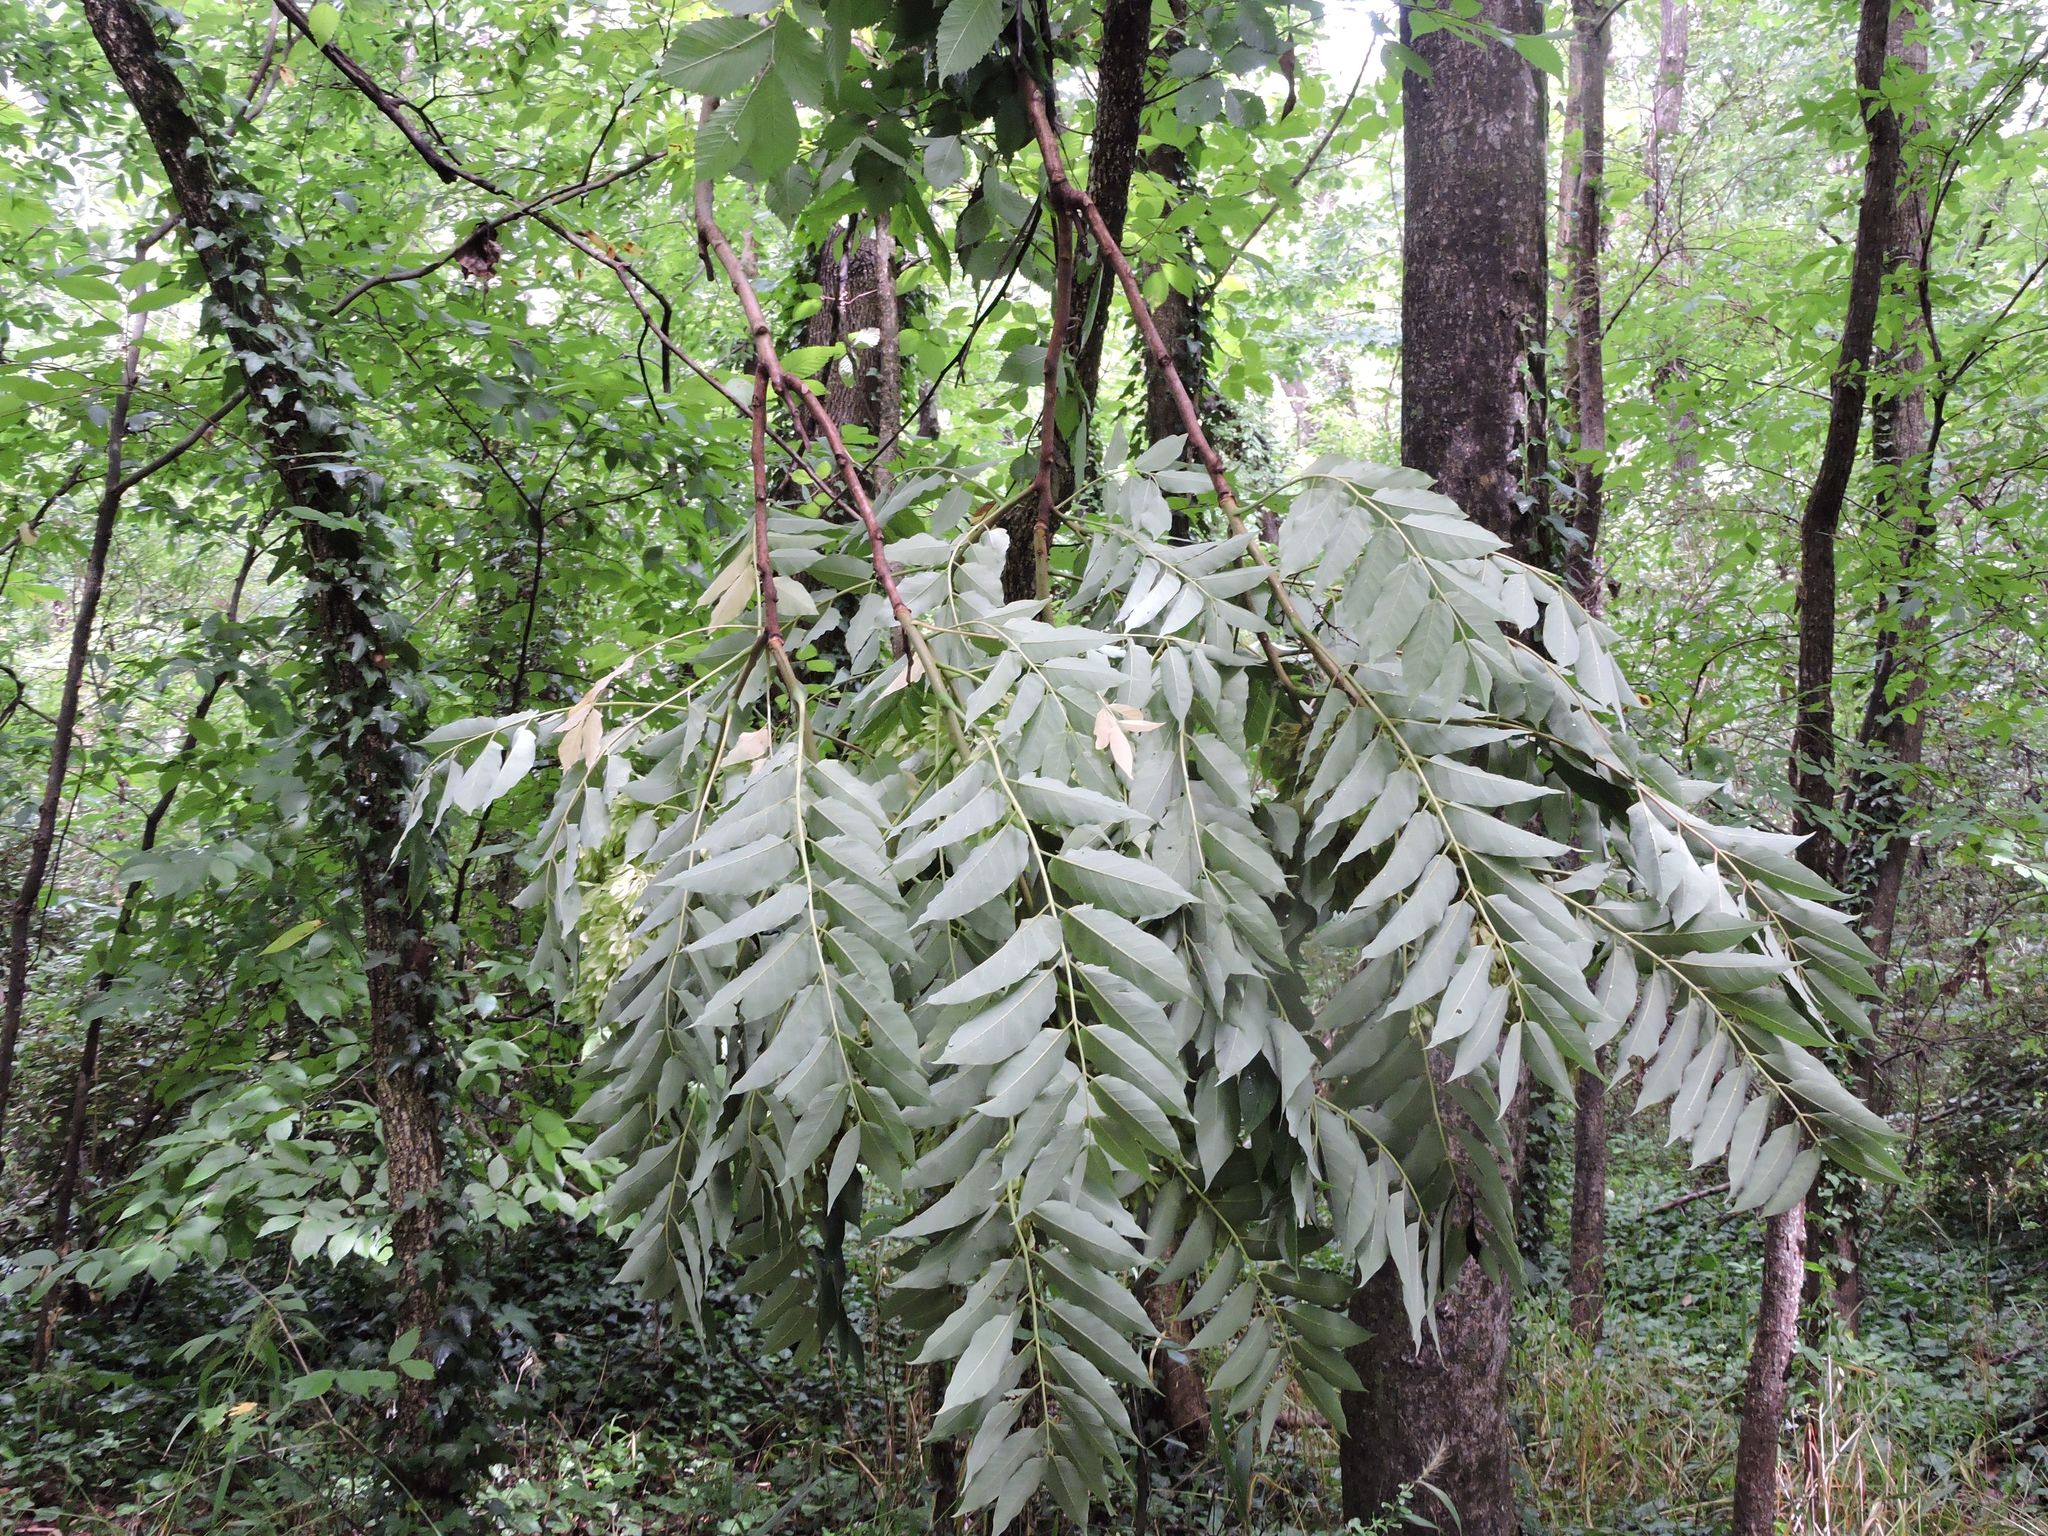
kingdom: Plantae
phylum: Tracheophyta
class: Magnoliopsida
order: Sapindales
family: Simaroubaceae
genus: Ailanthus
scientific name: Ailanthus altissima
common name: Tree-of-heaven
